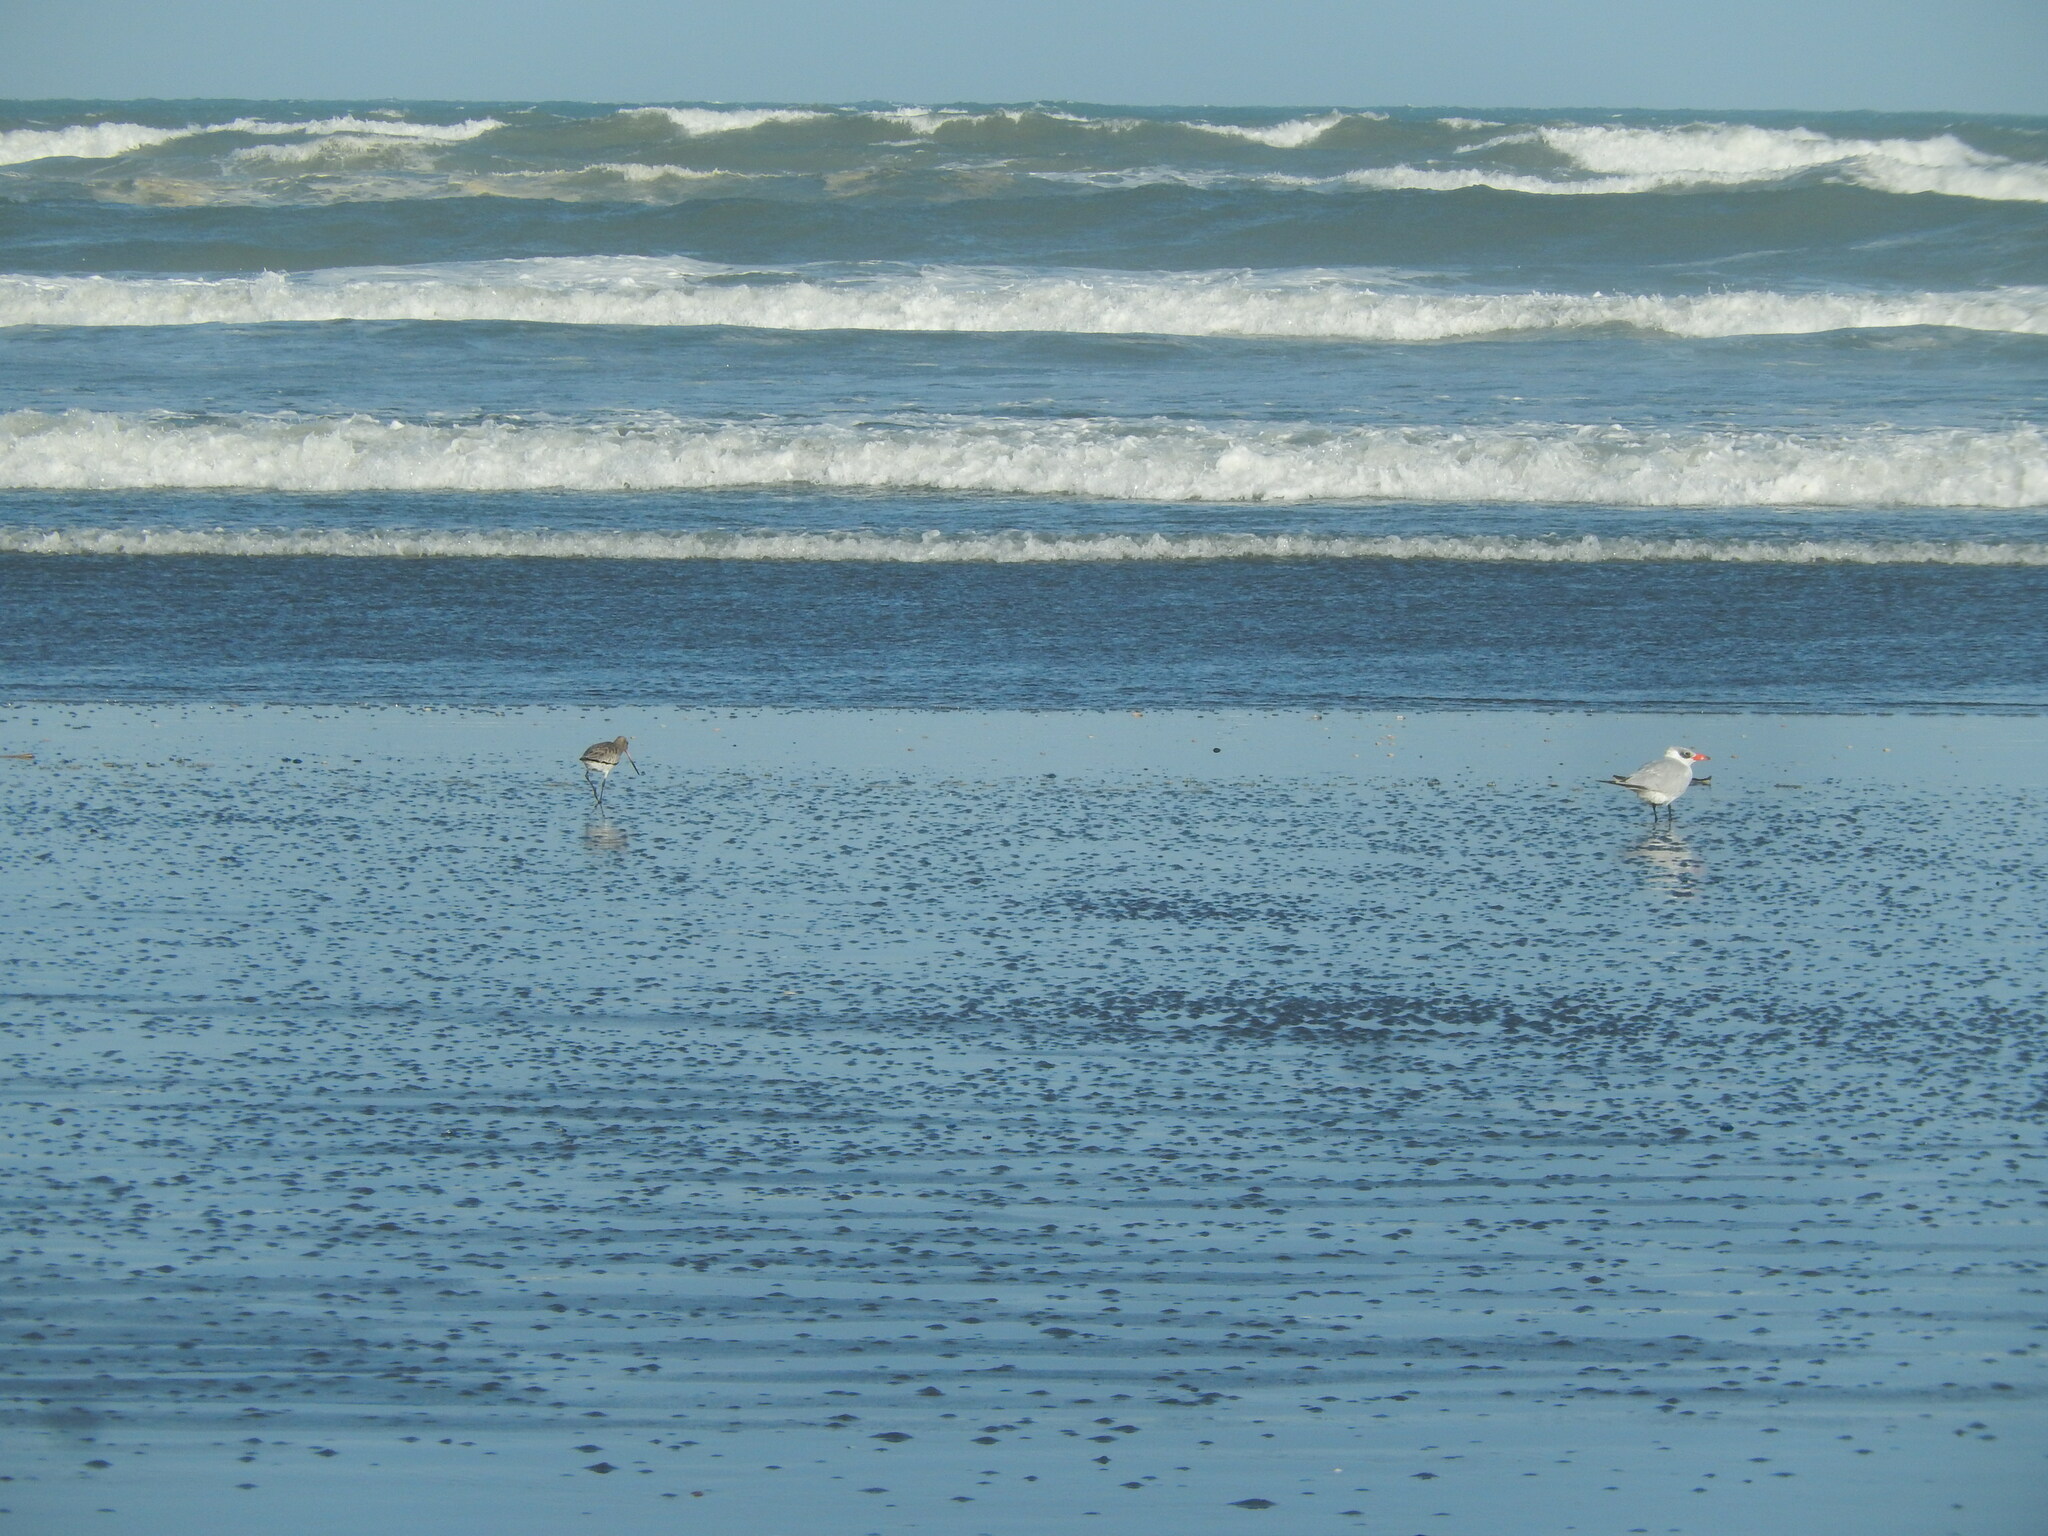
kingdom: Animalia
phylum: Chordata
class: Aves
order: Charadriiformes
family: Scolopacidae
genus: Limosa
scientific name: Limosa lapponica
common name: Bar-tailed godwit
